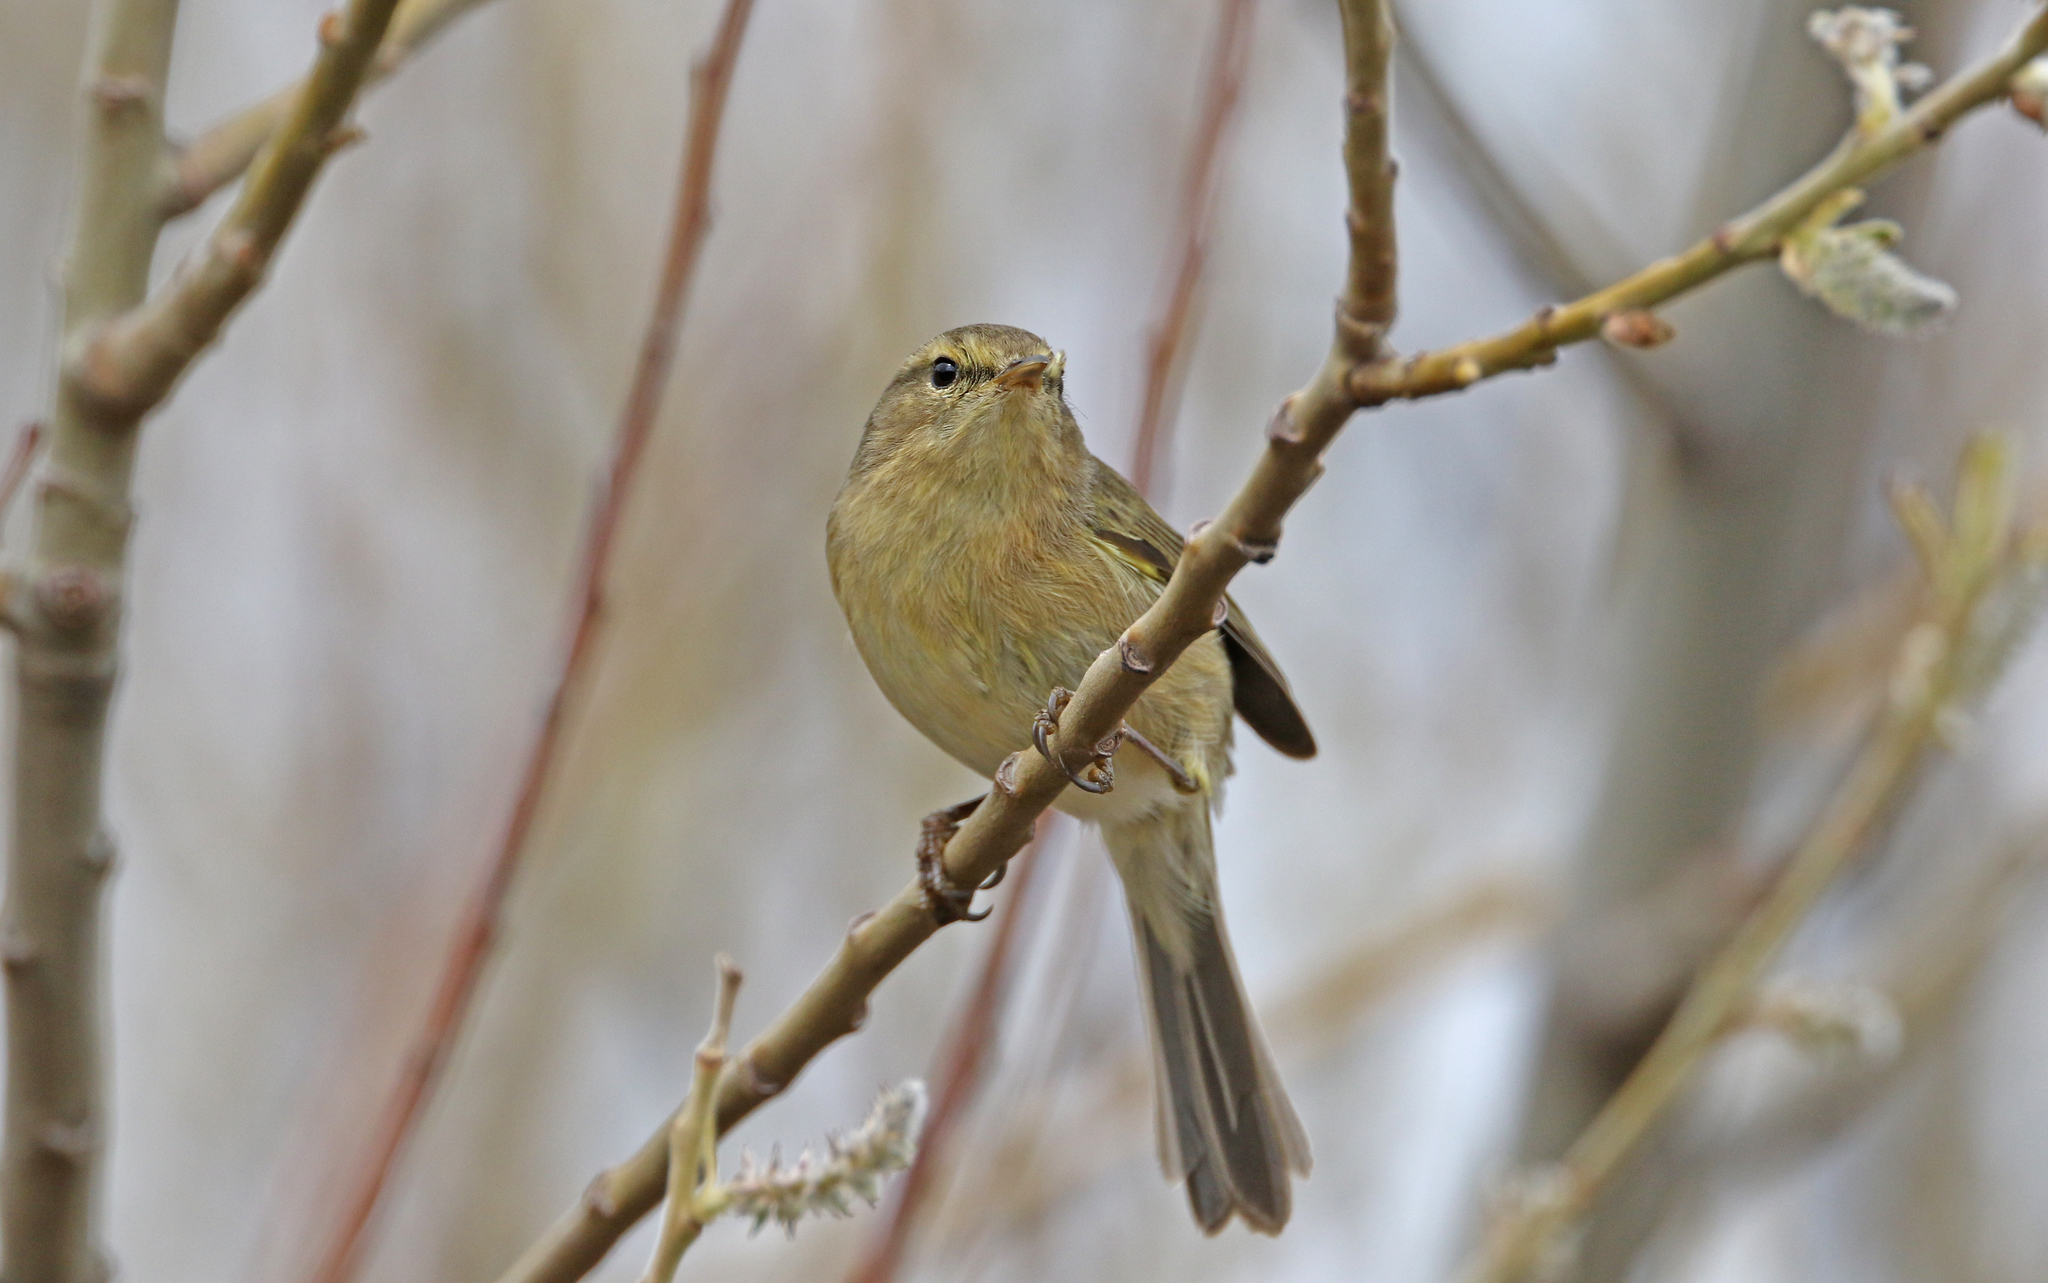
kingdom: Animalia
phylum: Chordata
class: Aves
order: Passeriformes
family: Phylloscopidae
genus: Phylloscopus
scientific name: Phylloscopus canariensis
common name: Canary islands chiffchaff
